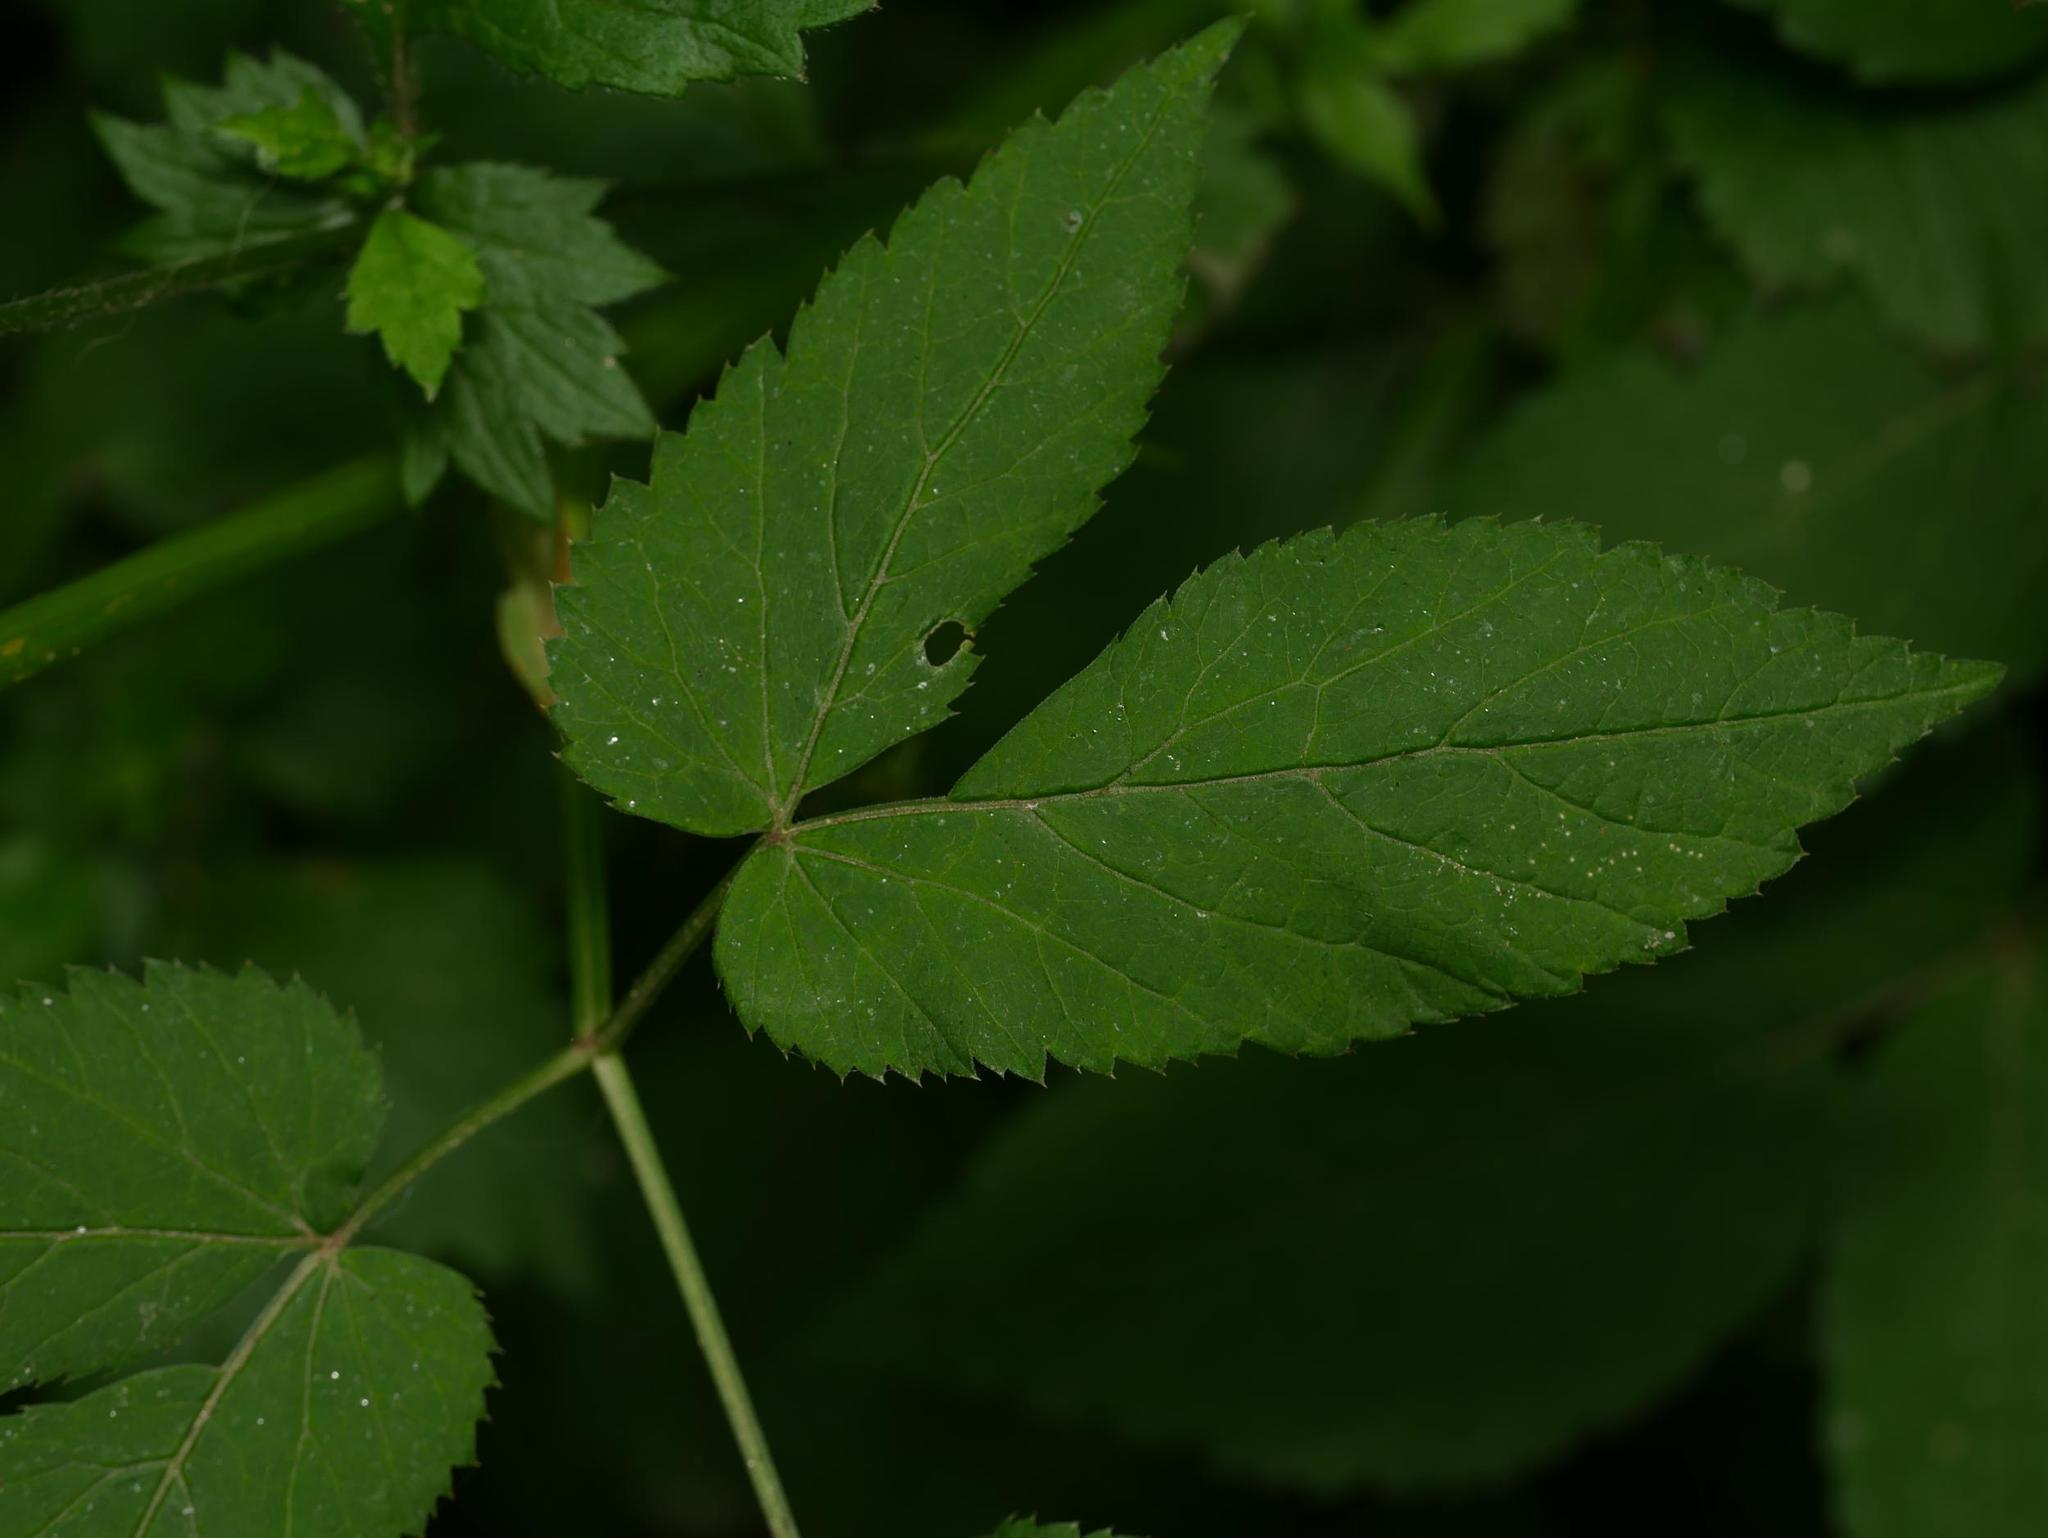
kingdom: Plantae
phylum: Tracheophyta
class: Magnoliopsida
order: Apiales
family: Apiaceae
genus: Aegopodium
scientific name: Aegopodium podagraria
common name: Ground-elder
